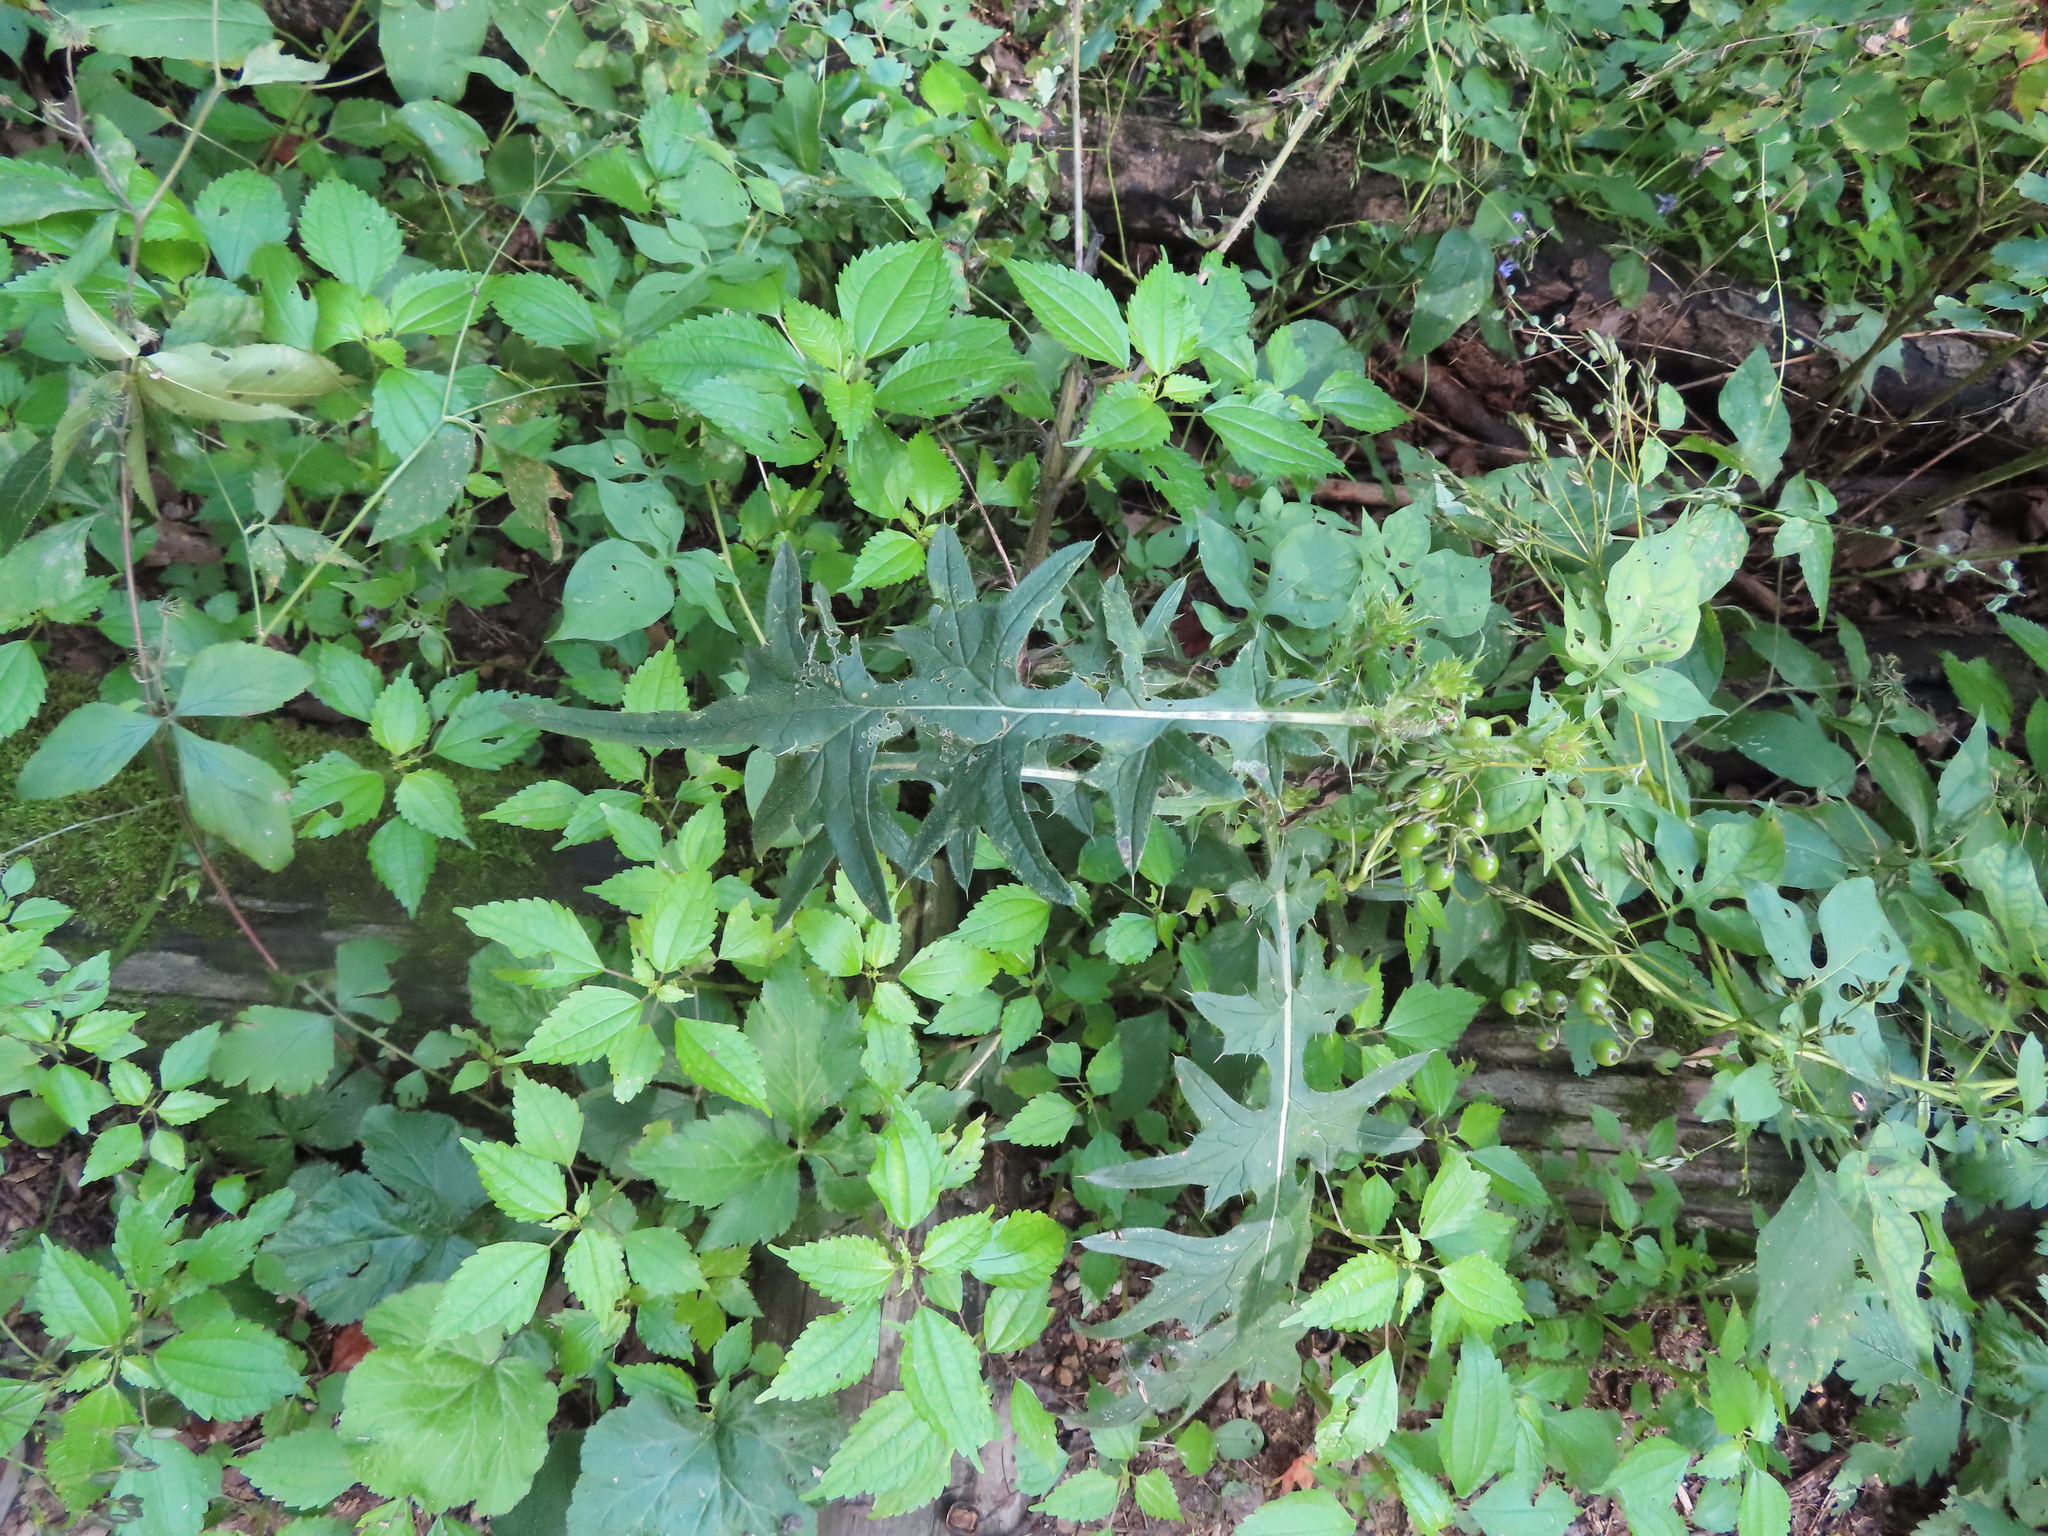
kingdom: Plantae
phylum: Tracheophyta
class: Magnoliopsida
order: Asterales
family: Asteraceae
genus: Cirsium
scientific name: Cirsium vulgare
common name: Bull thistle
